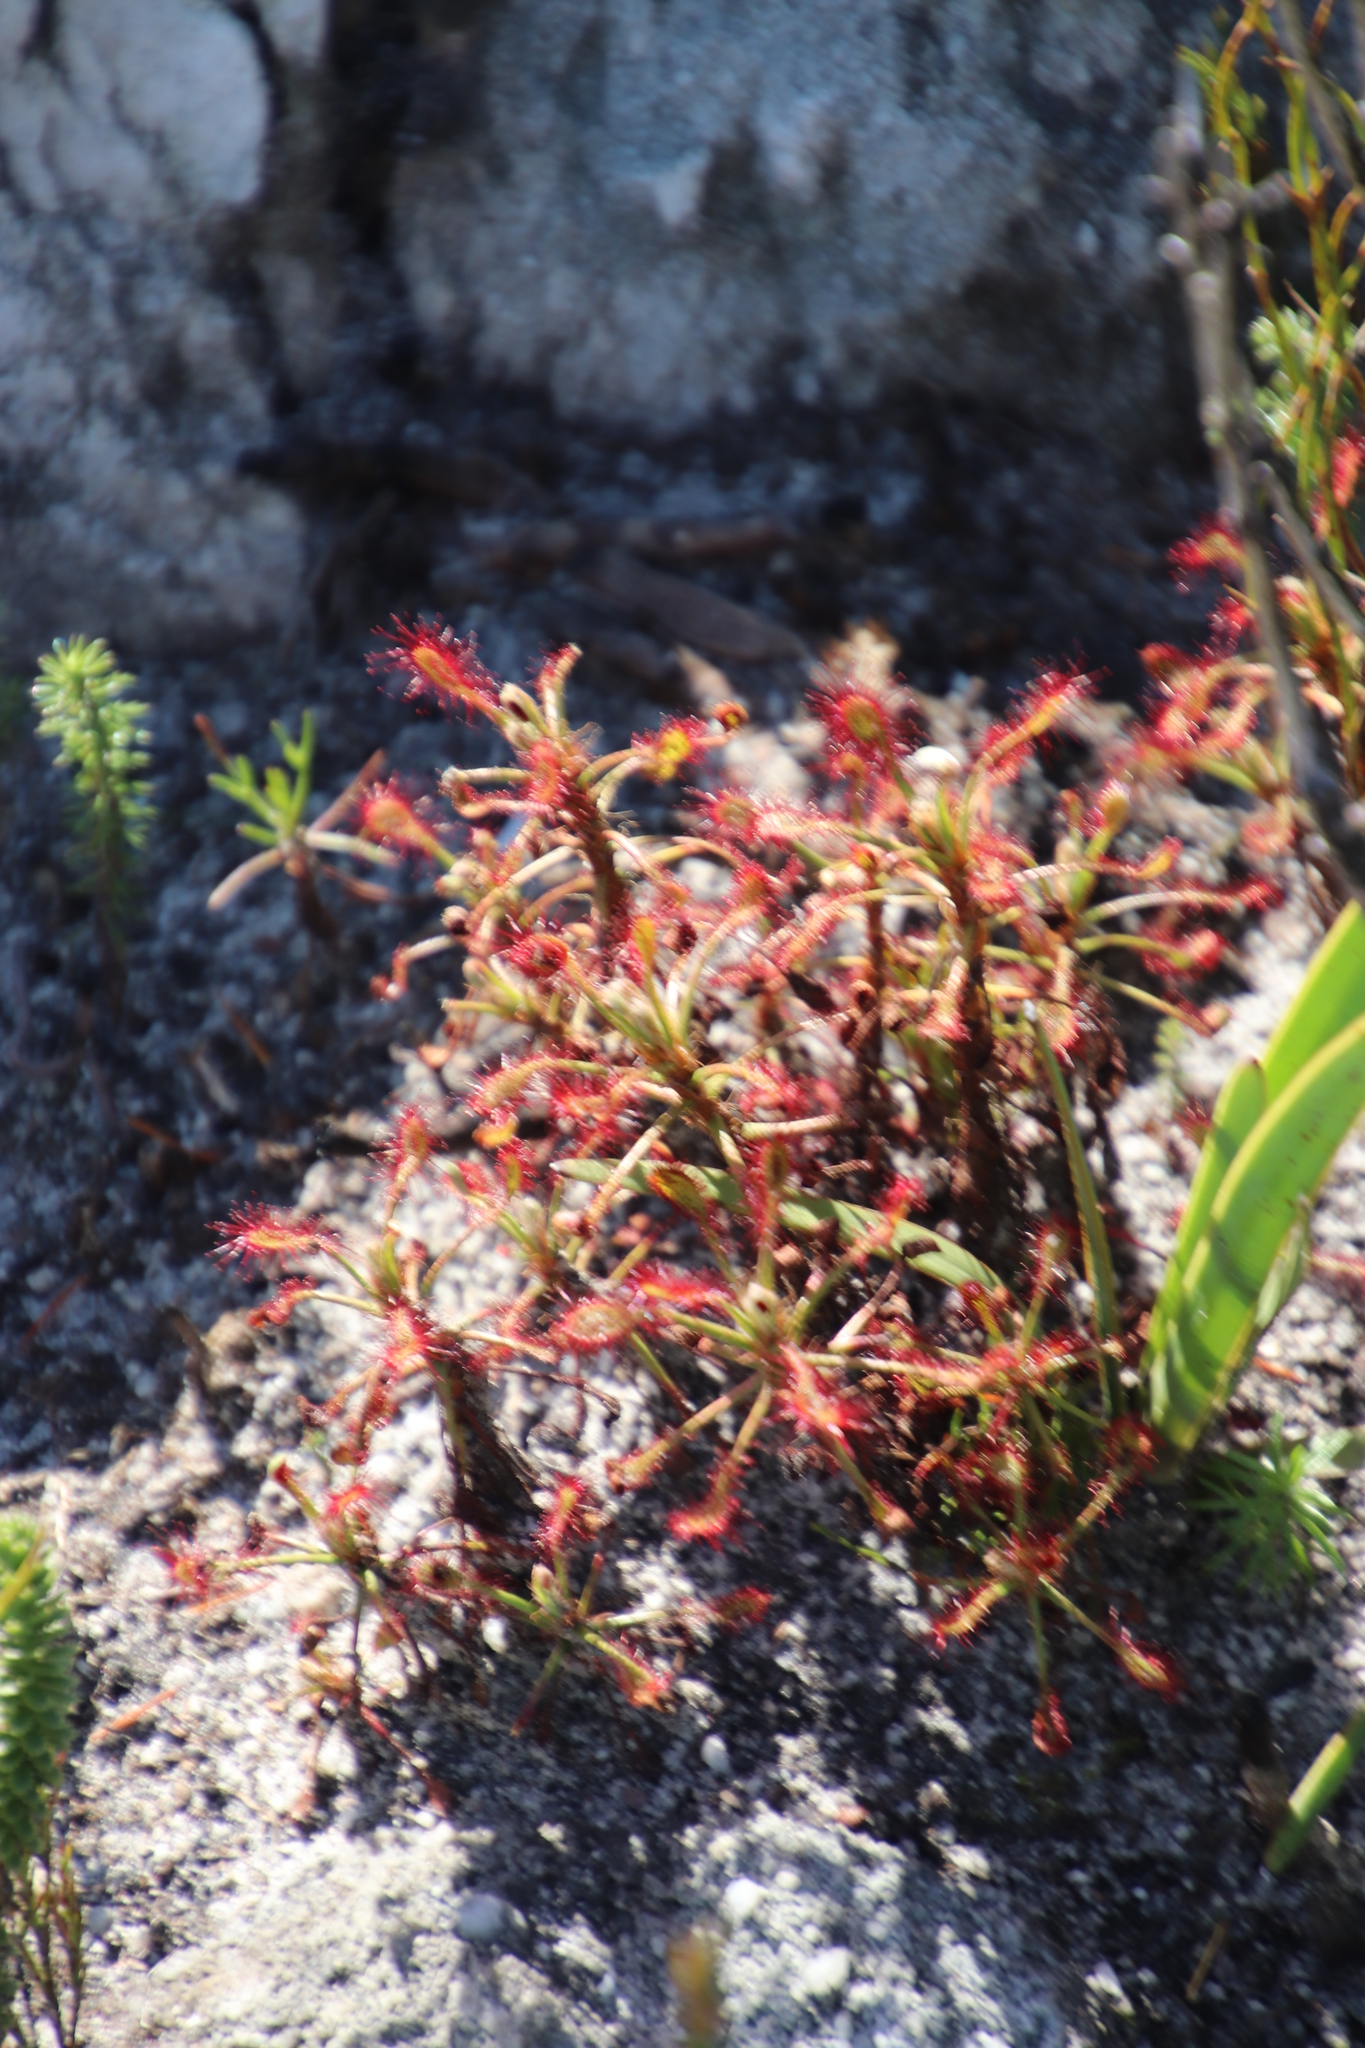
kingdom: Plantae
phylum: Tracheophyta
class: Magnoliopsida
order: Caryophyllales
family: Droseraceae
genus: Drosera
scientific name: Drosera glabripes
